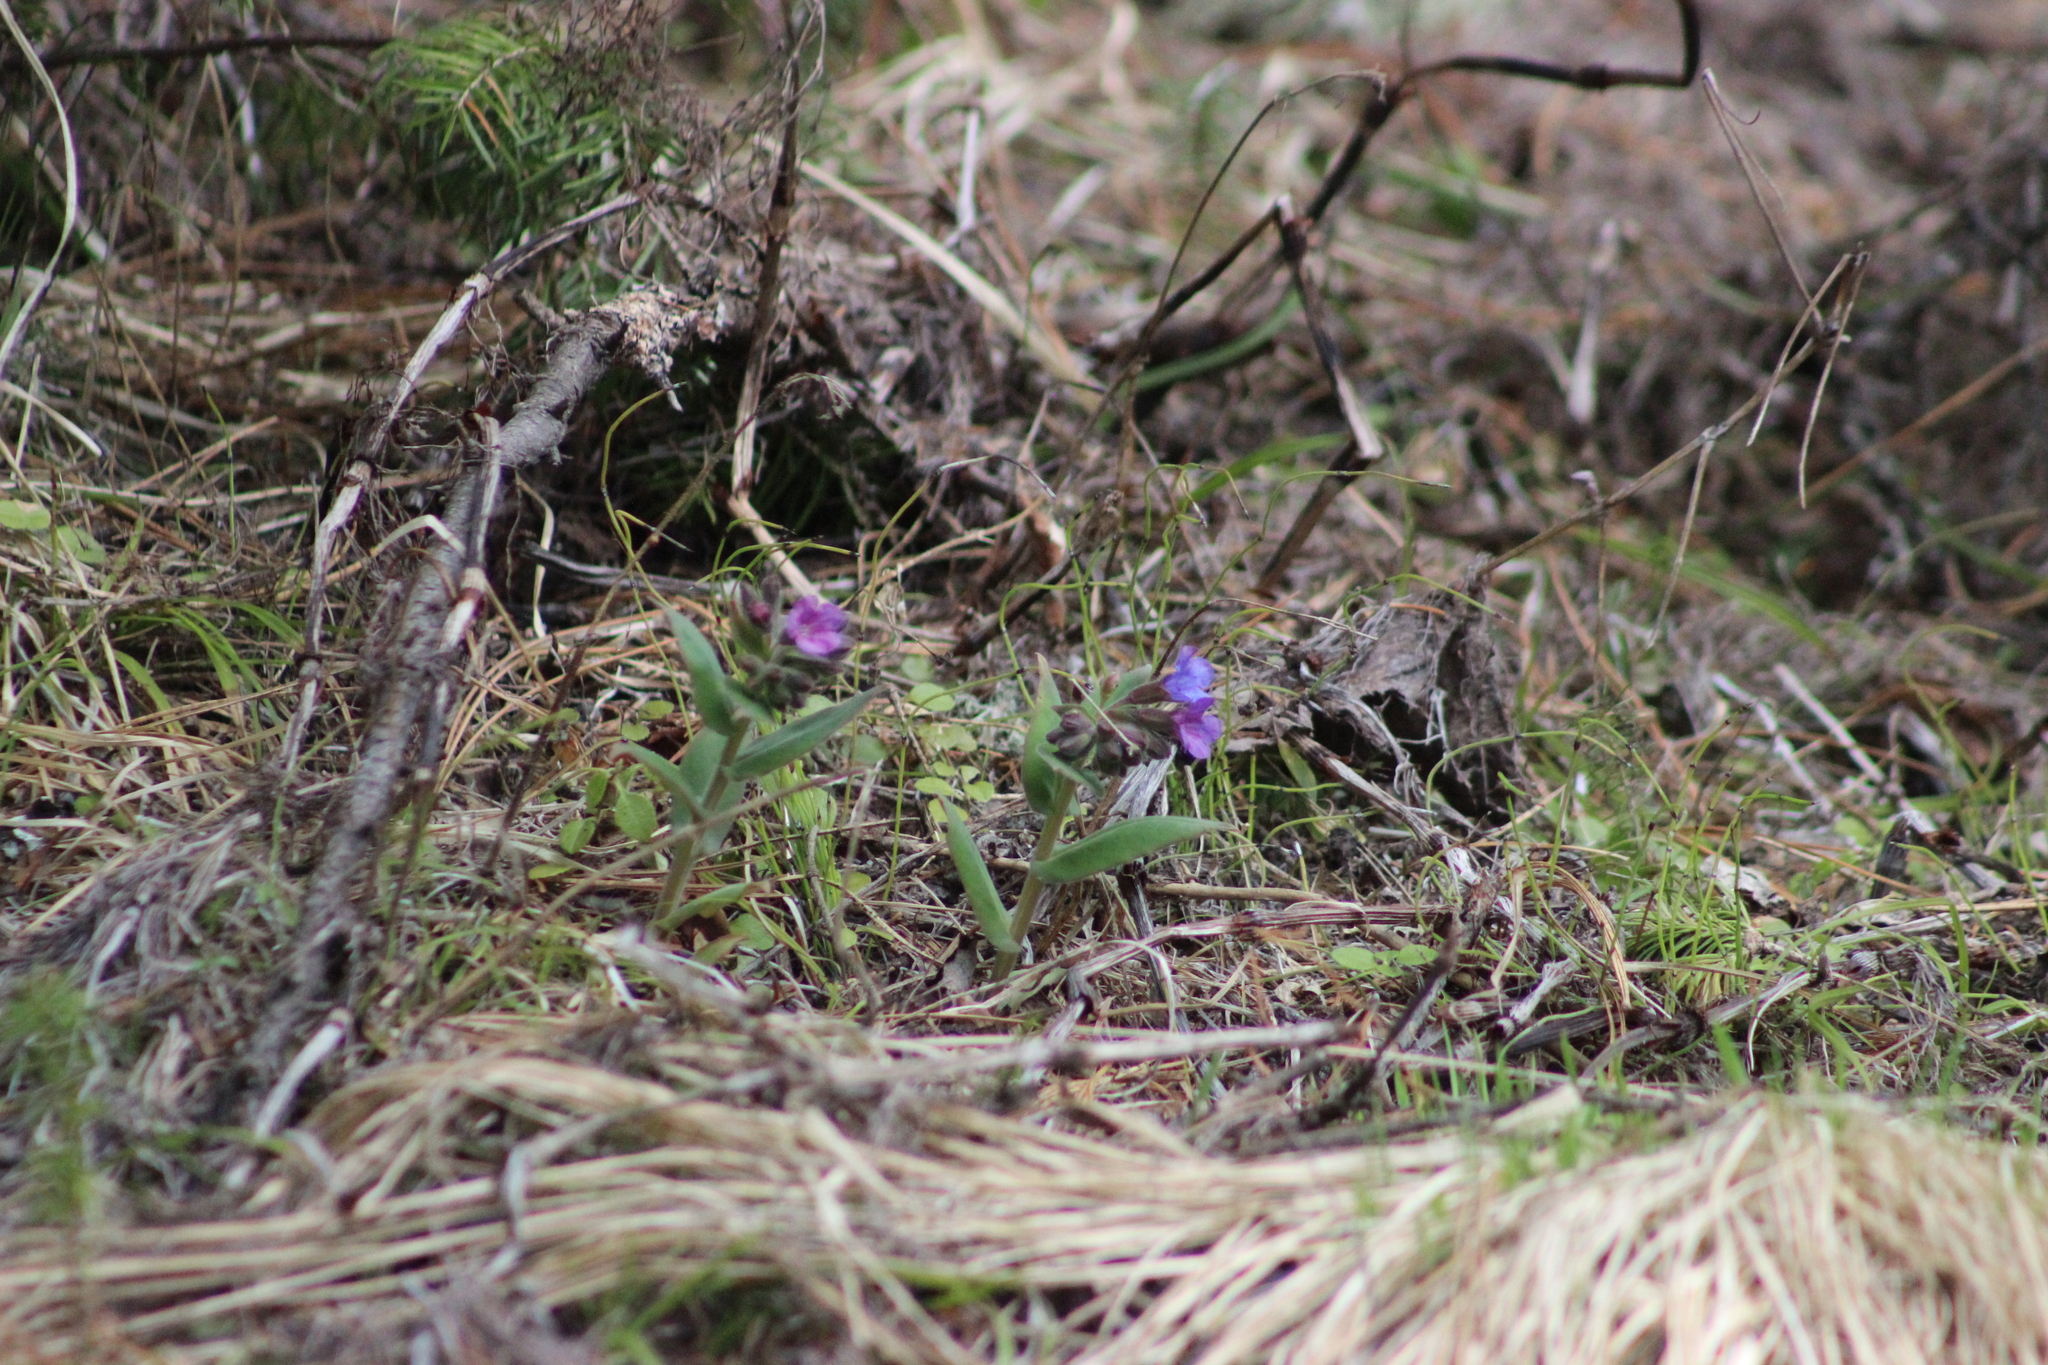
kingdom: Plantae
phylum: Tracheophyta
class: Magnoliopsida
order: Boraginales
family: Boraginaceae
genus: Pulmonaria
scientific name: Pulmonaria mollis
